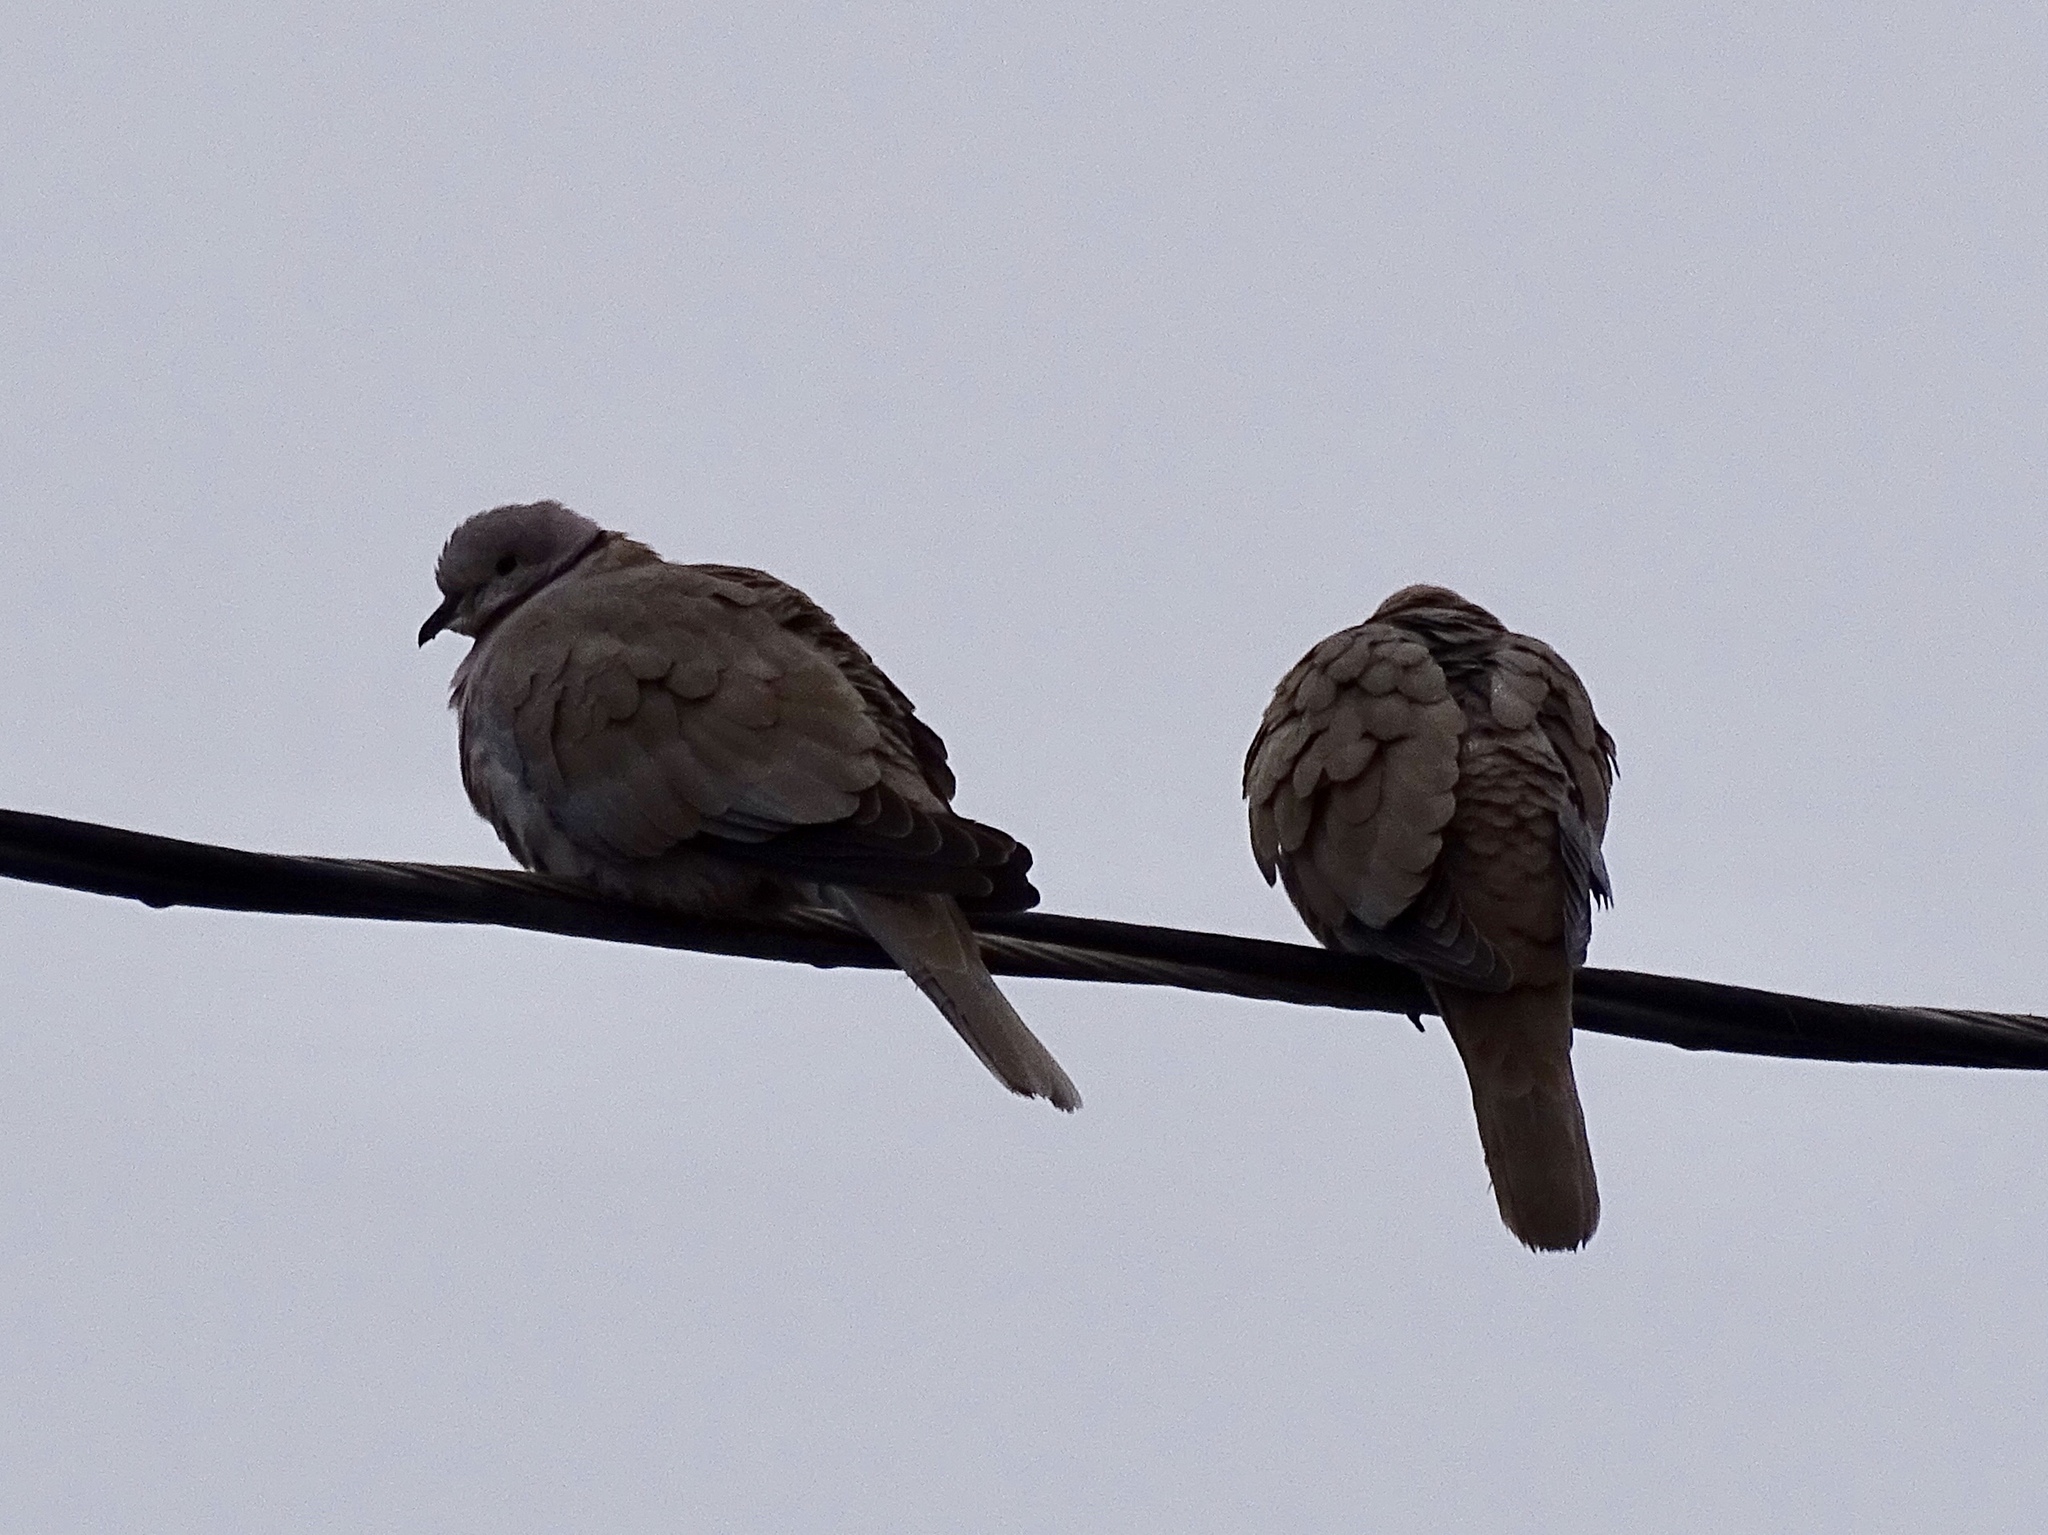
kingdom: Animalia
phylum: Chordata
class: Aves
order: Columbiformes
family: Columbidae
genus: Streptopelia
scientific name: Streptopelia decaocto
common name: Eurasian collared dove
